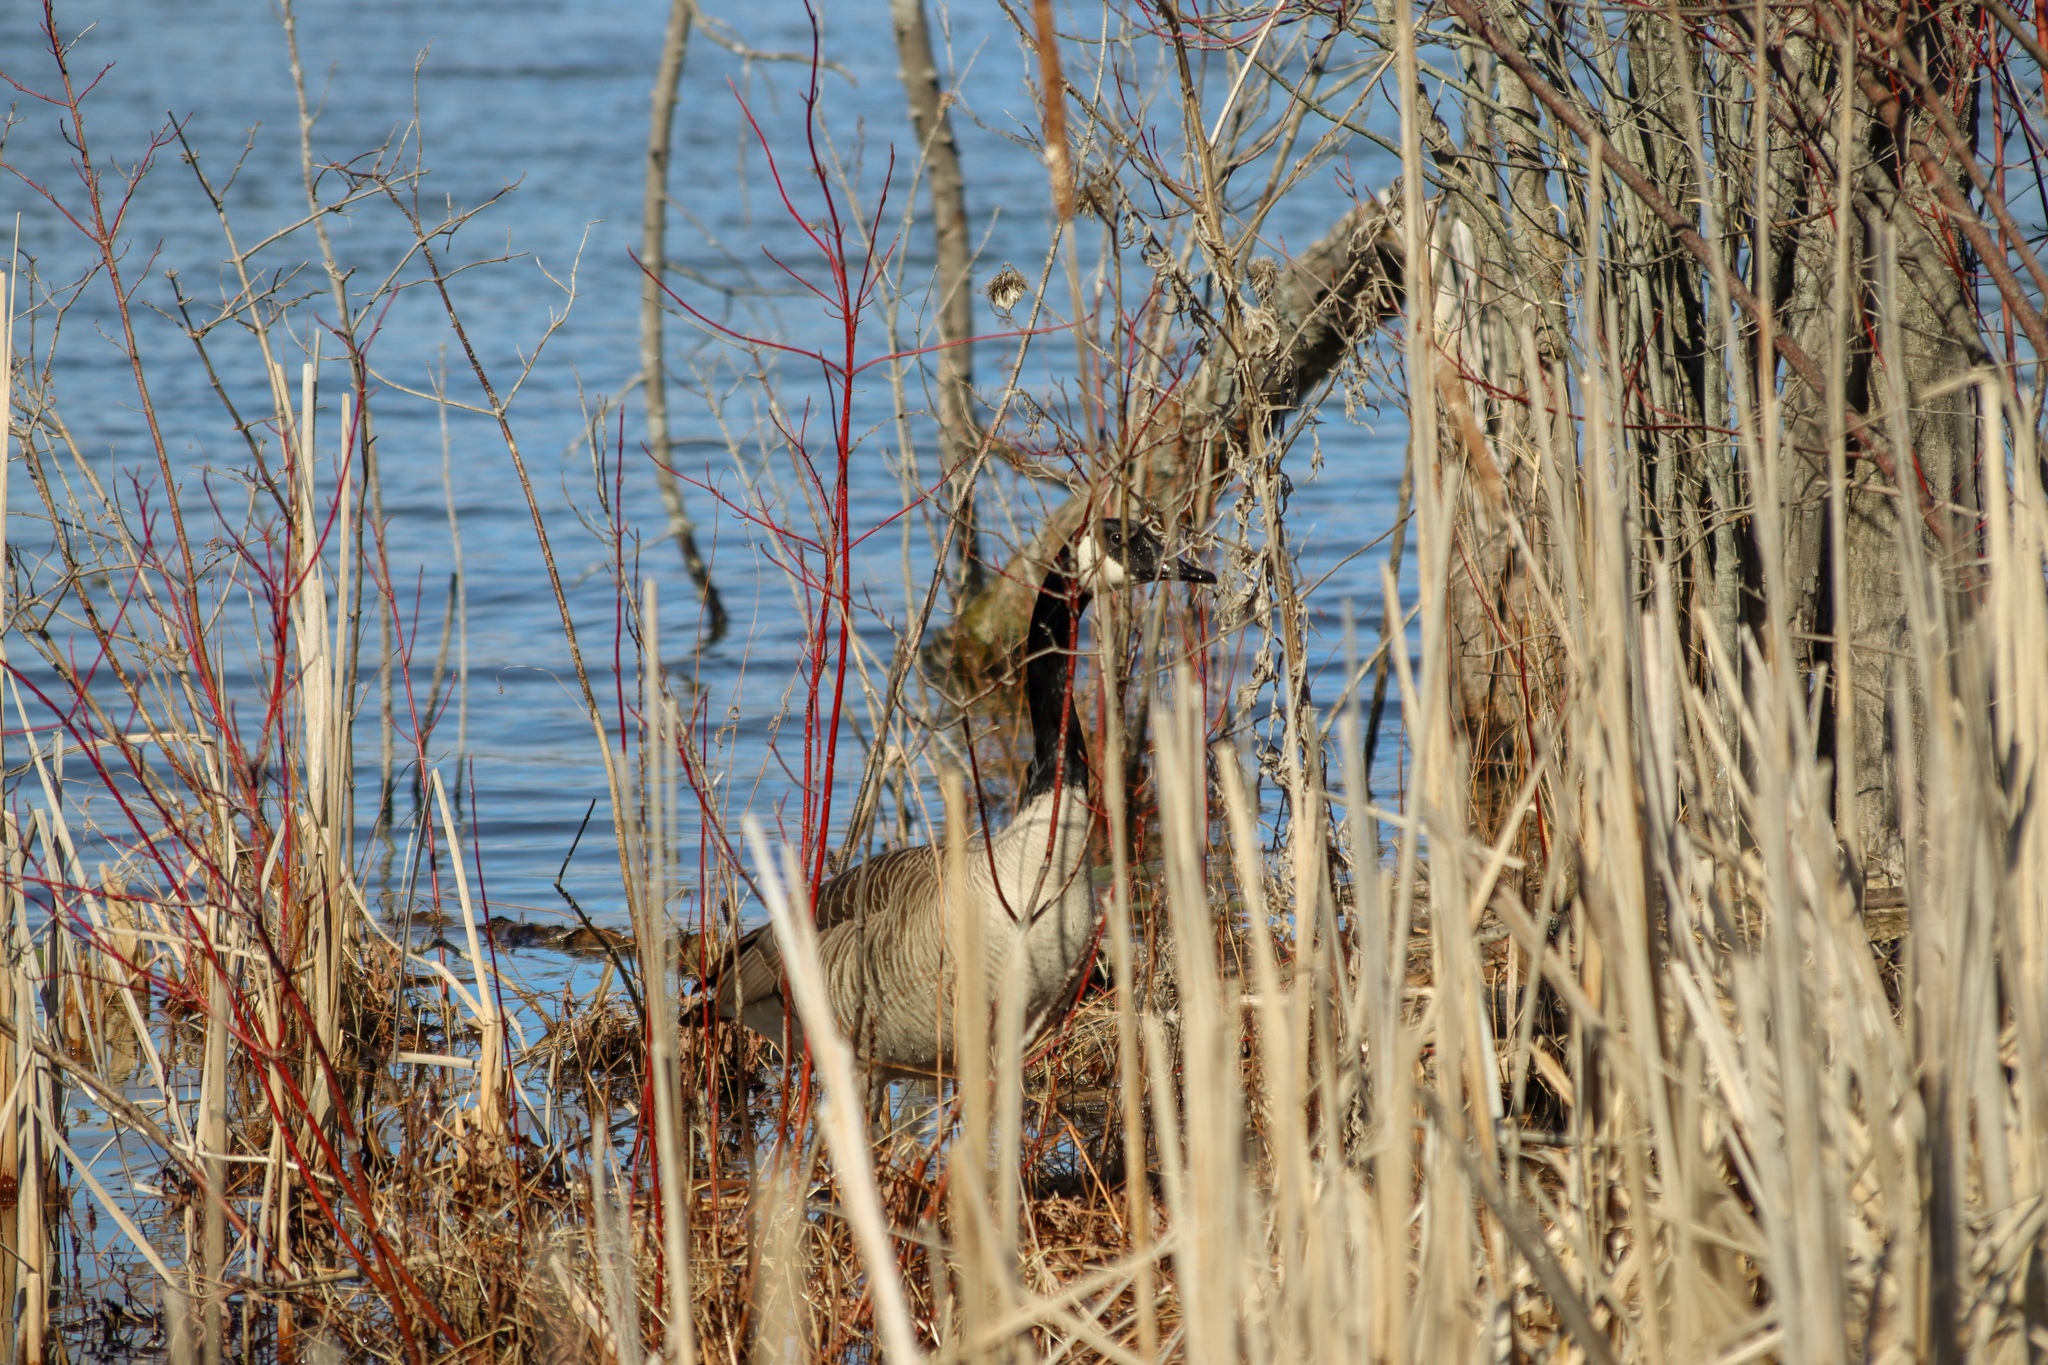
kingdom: Animalia
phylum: Chordata
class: Aves
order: Anseriformes
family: Anatidae
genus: Branta
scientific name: Branta canadensis
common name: Canada goose
